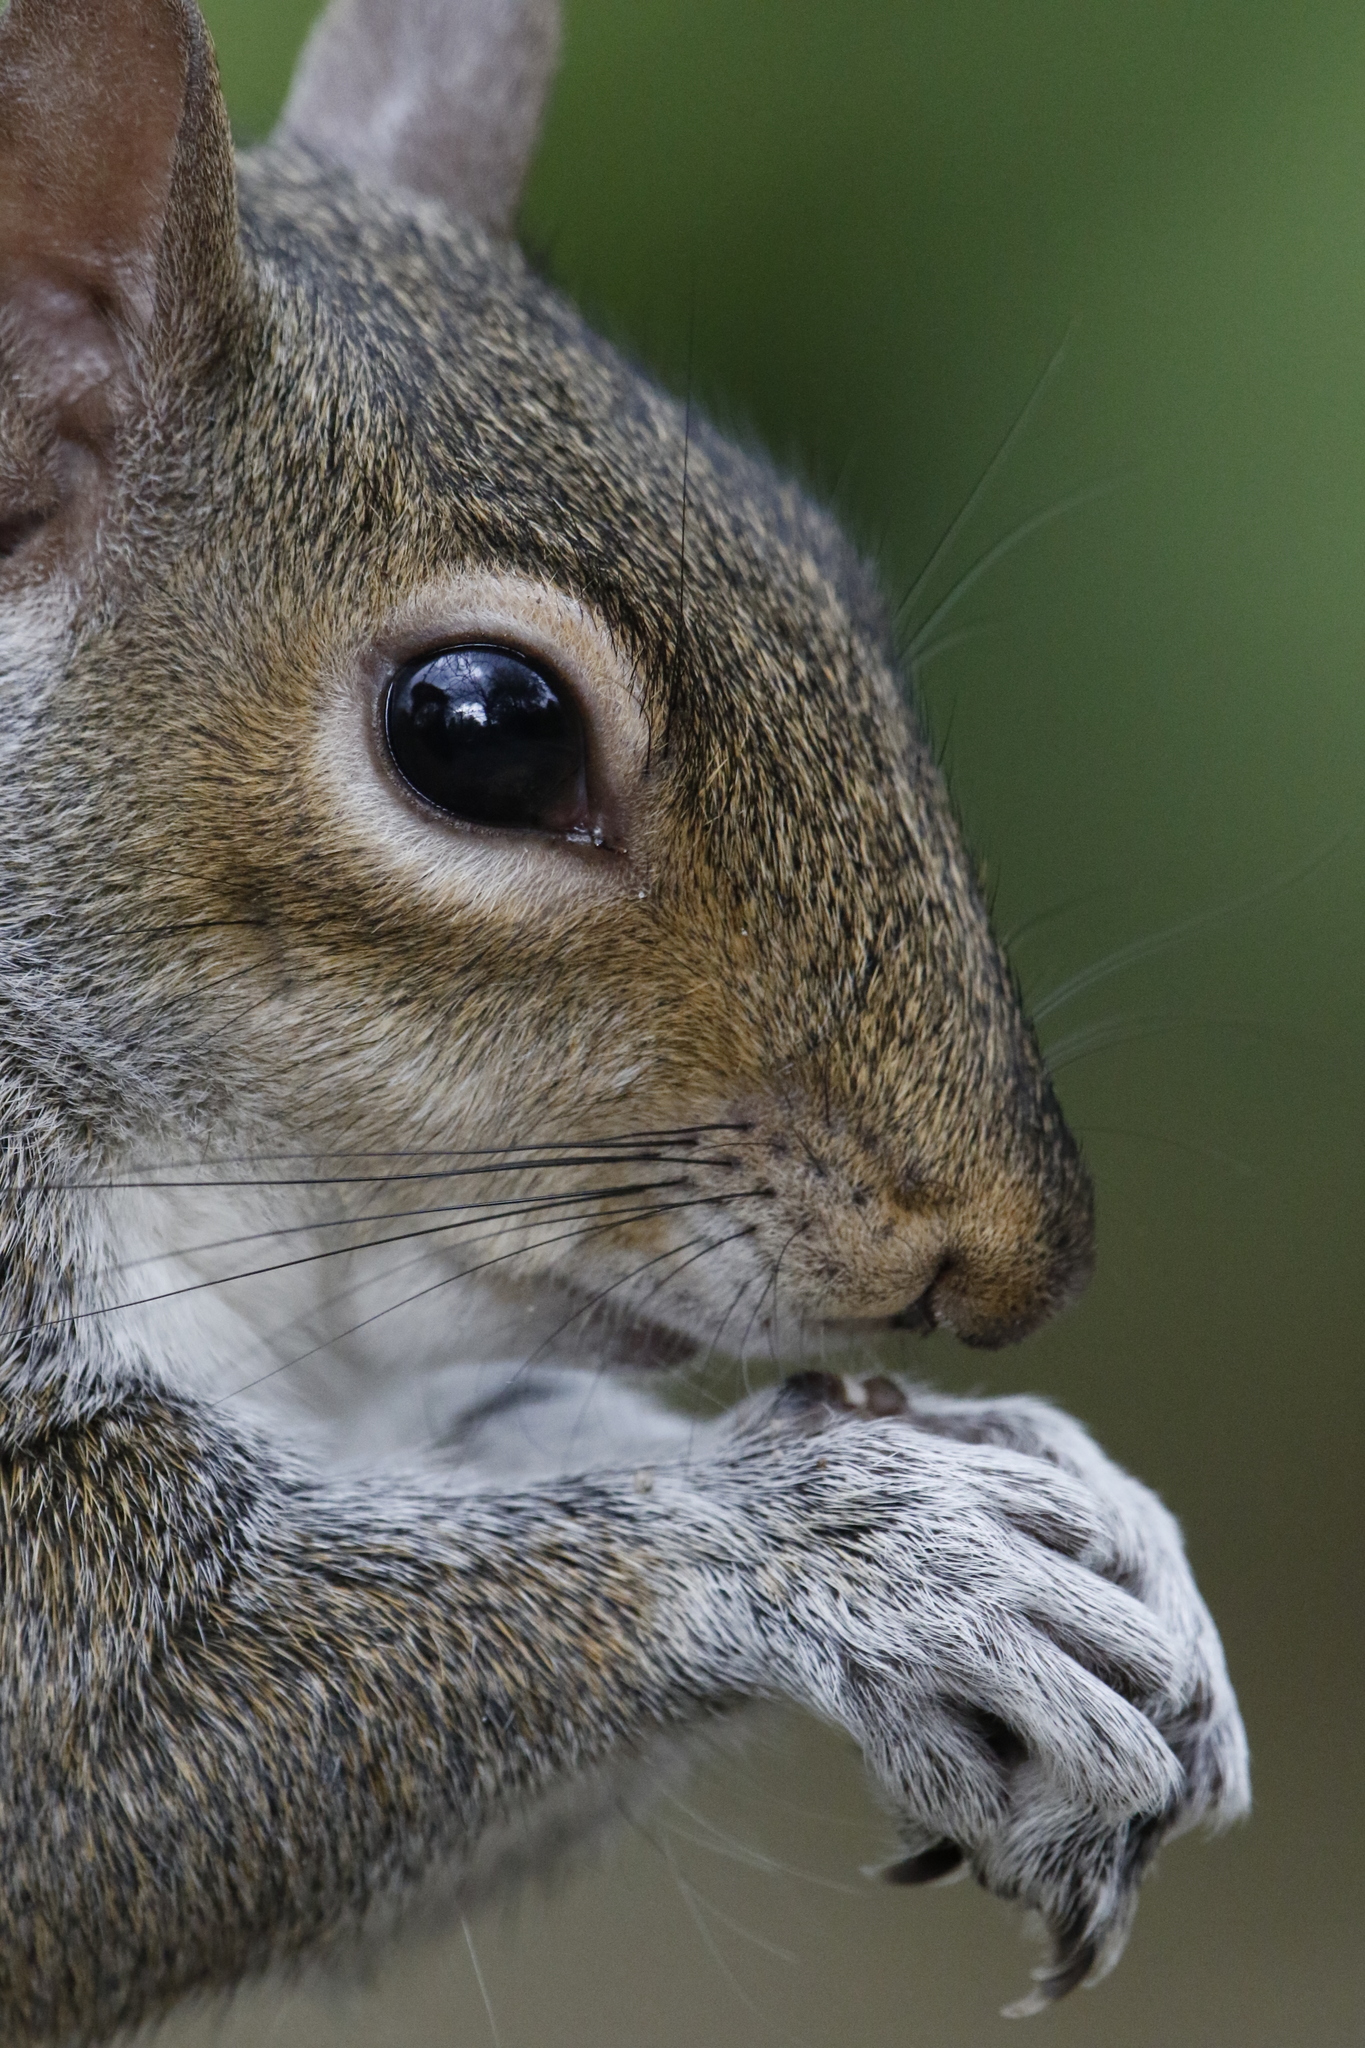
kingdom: Animalia
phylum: Chordata
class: Mammalia
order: Rodentia
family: Sciuridae
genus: Sciurus
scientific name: Sciurus carolinensis
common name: Eastern gray squirrel
